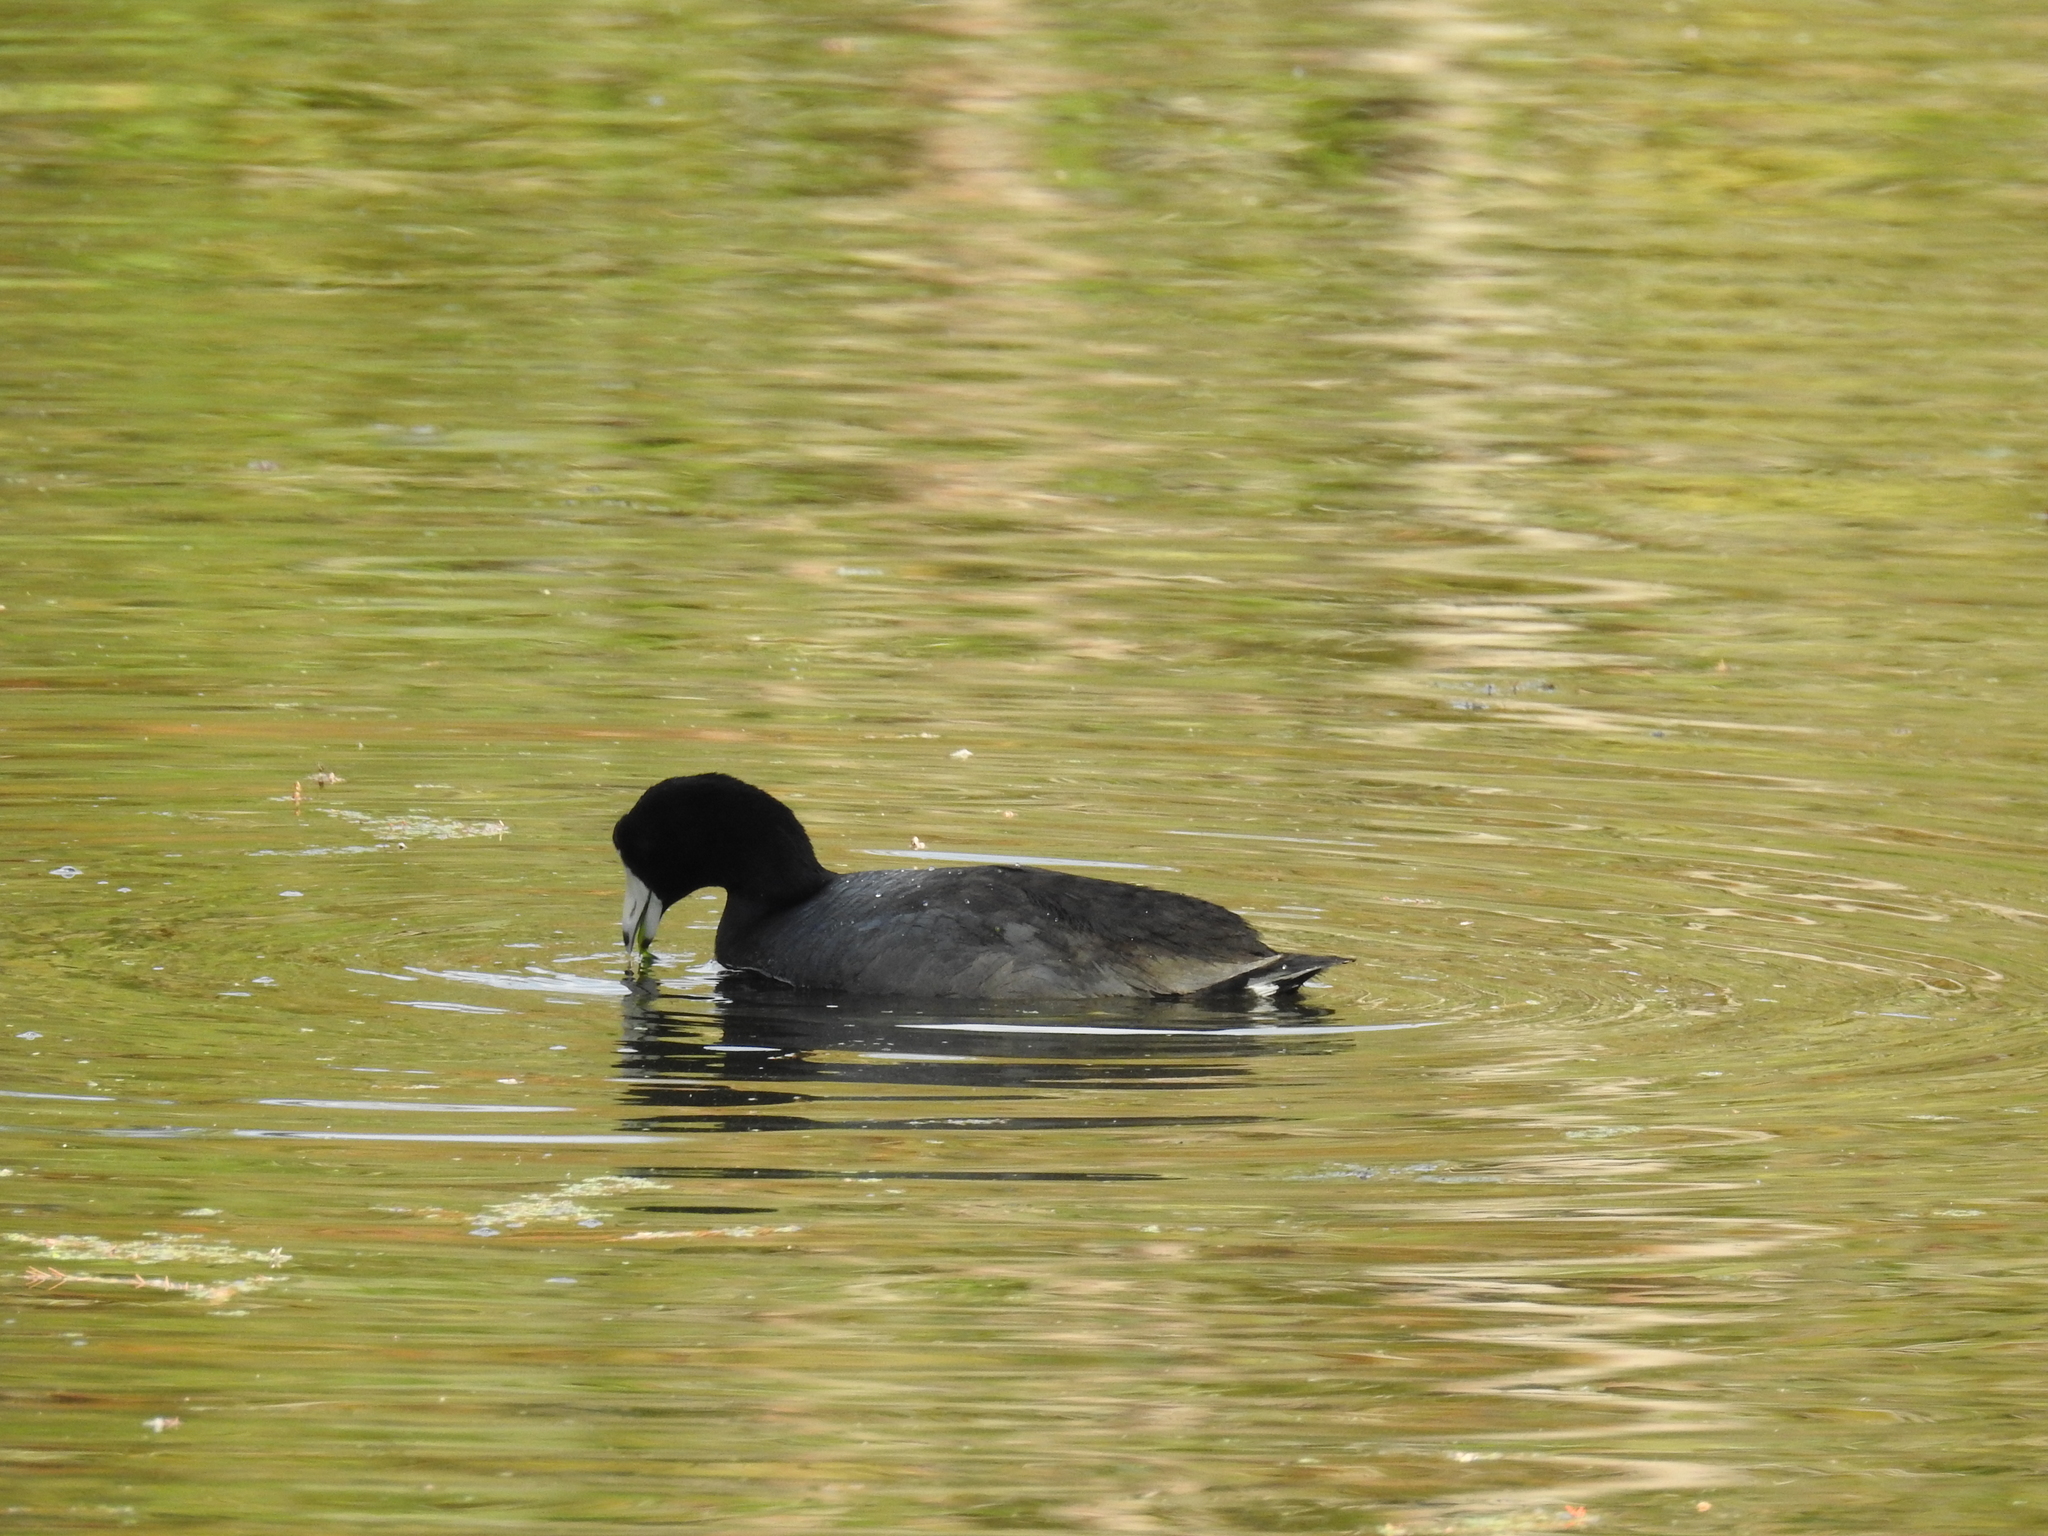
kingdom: Animalia
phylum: Chordata
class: Aves
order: Gruiformes
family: Rallidae
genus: Fulica
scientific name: Fulica americana
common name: American coot
